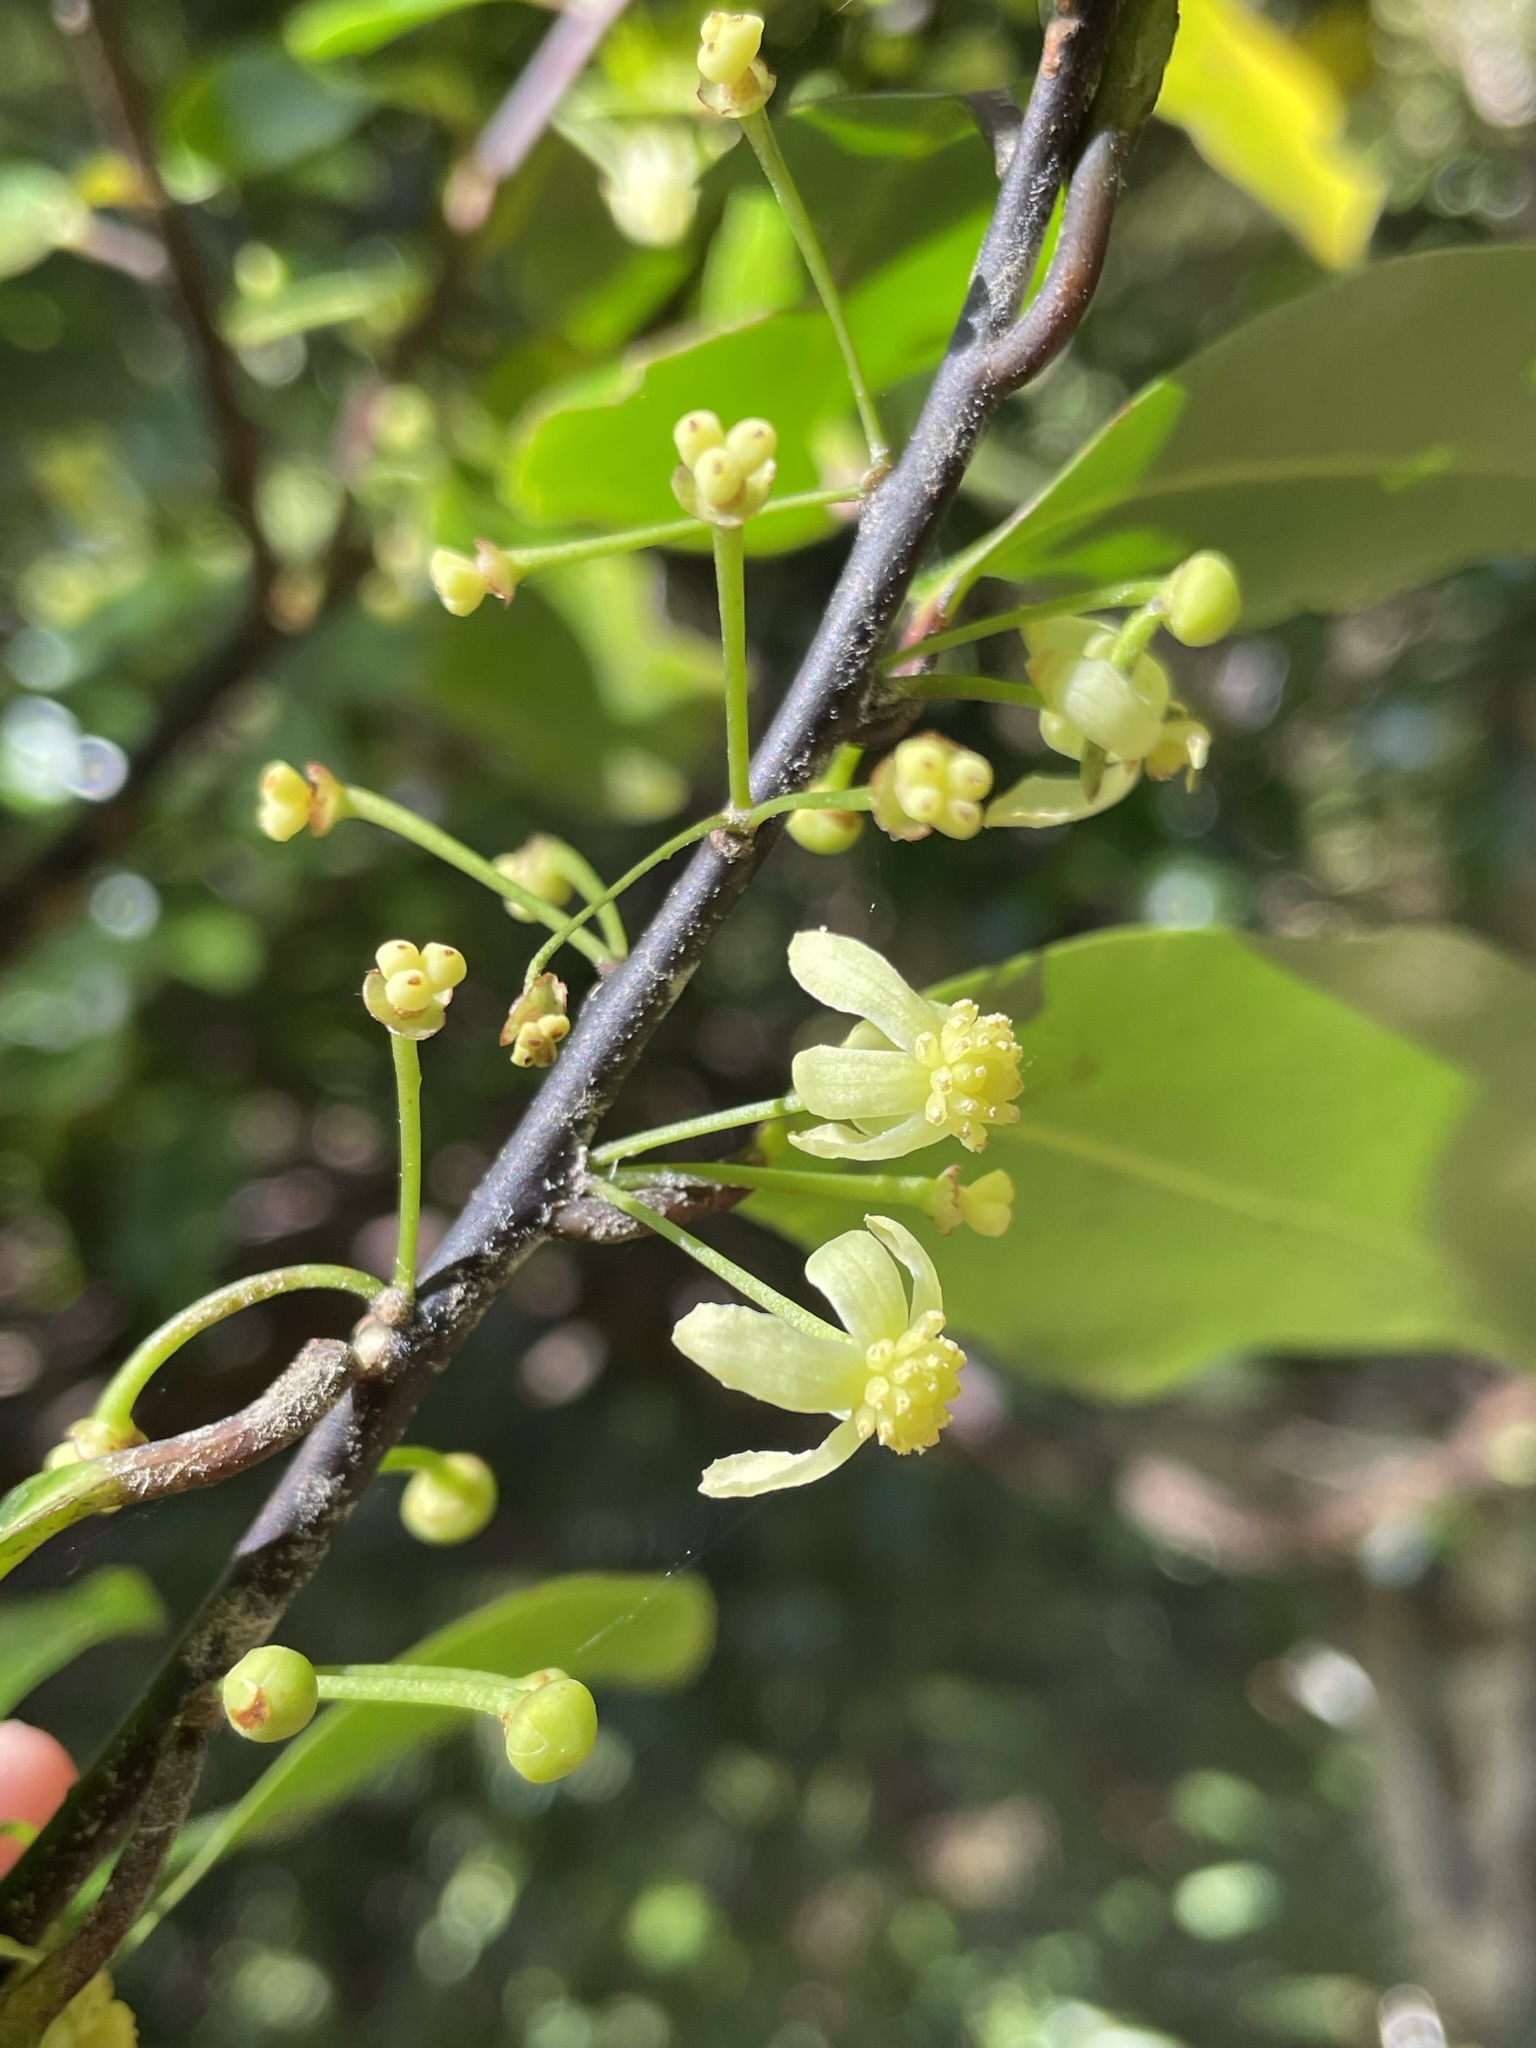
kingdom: Plantae
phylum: Tracheophyta
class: Magnoliopsida
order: Canellales
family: Winteraceae
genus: Pseudowintera
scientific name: Pseudowintera axillaris
